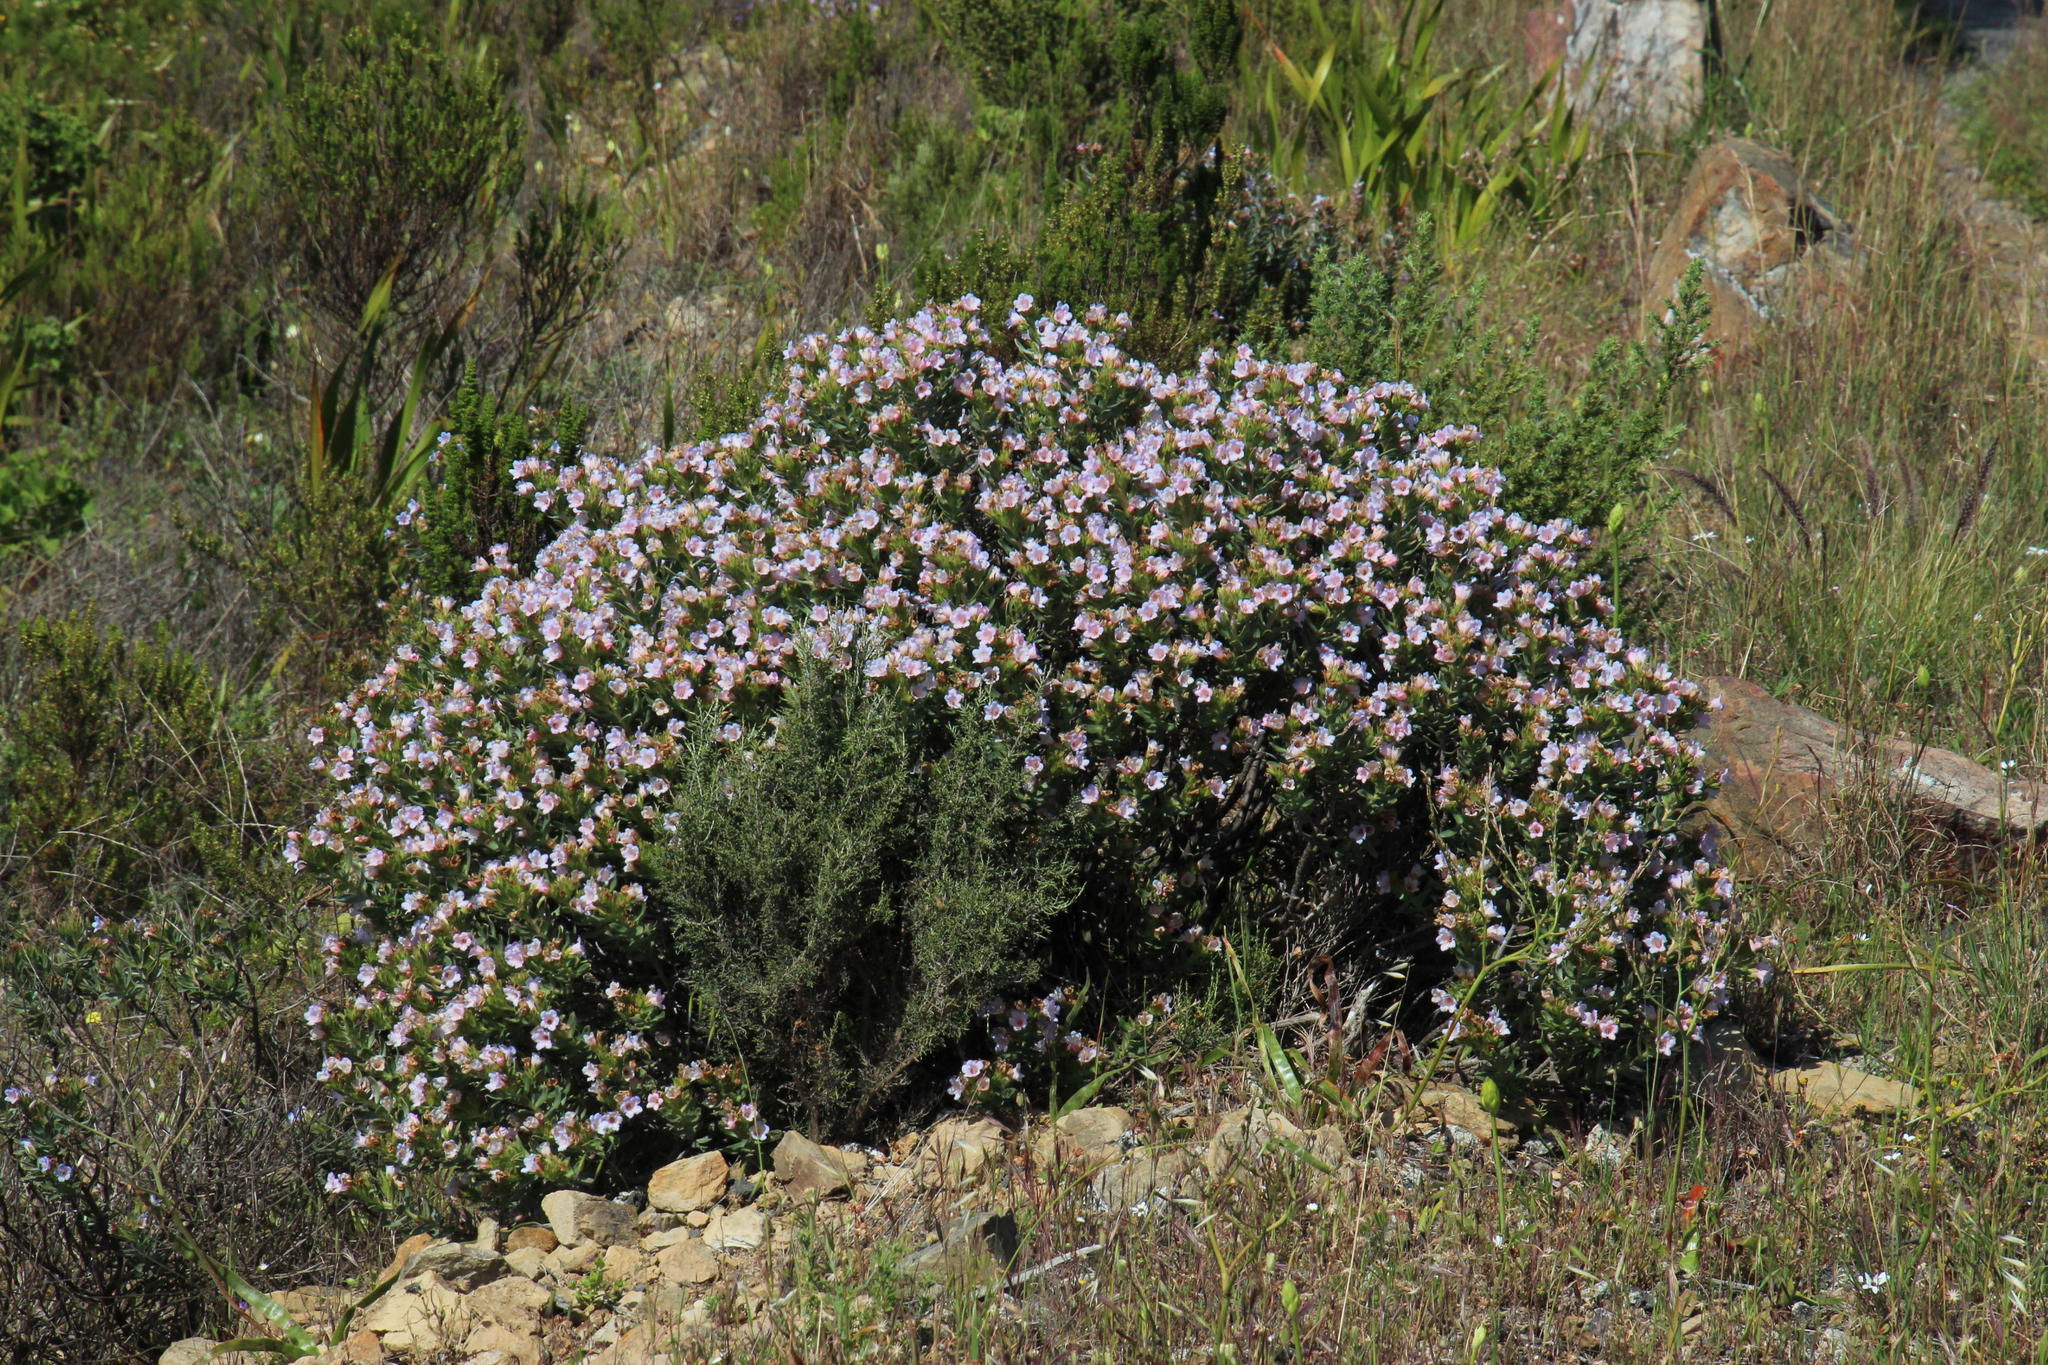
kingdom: Plantae
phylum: Tracheophyta
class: Magnoliopsida
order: Boraginales
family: Boraginaceae
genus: Lobostemon
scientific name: Lobostemon fruticosus
